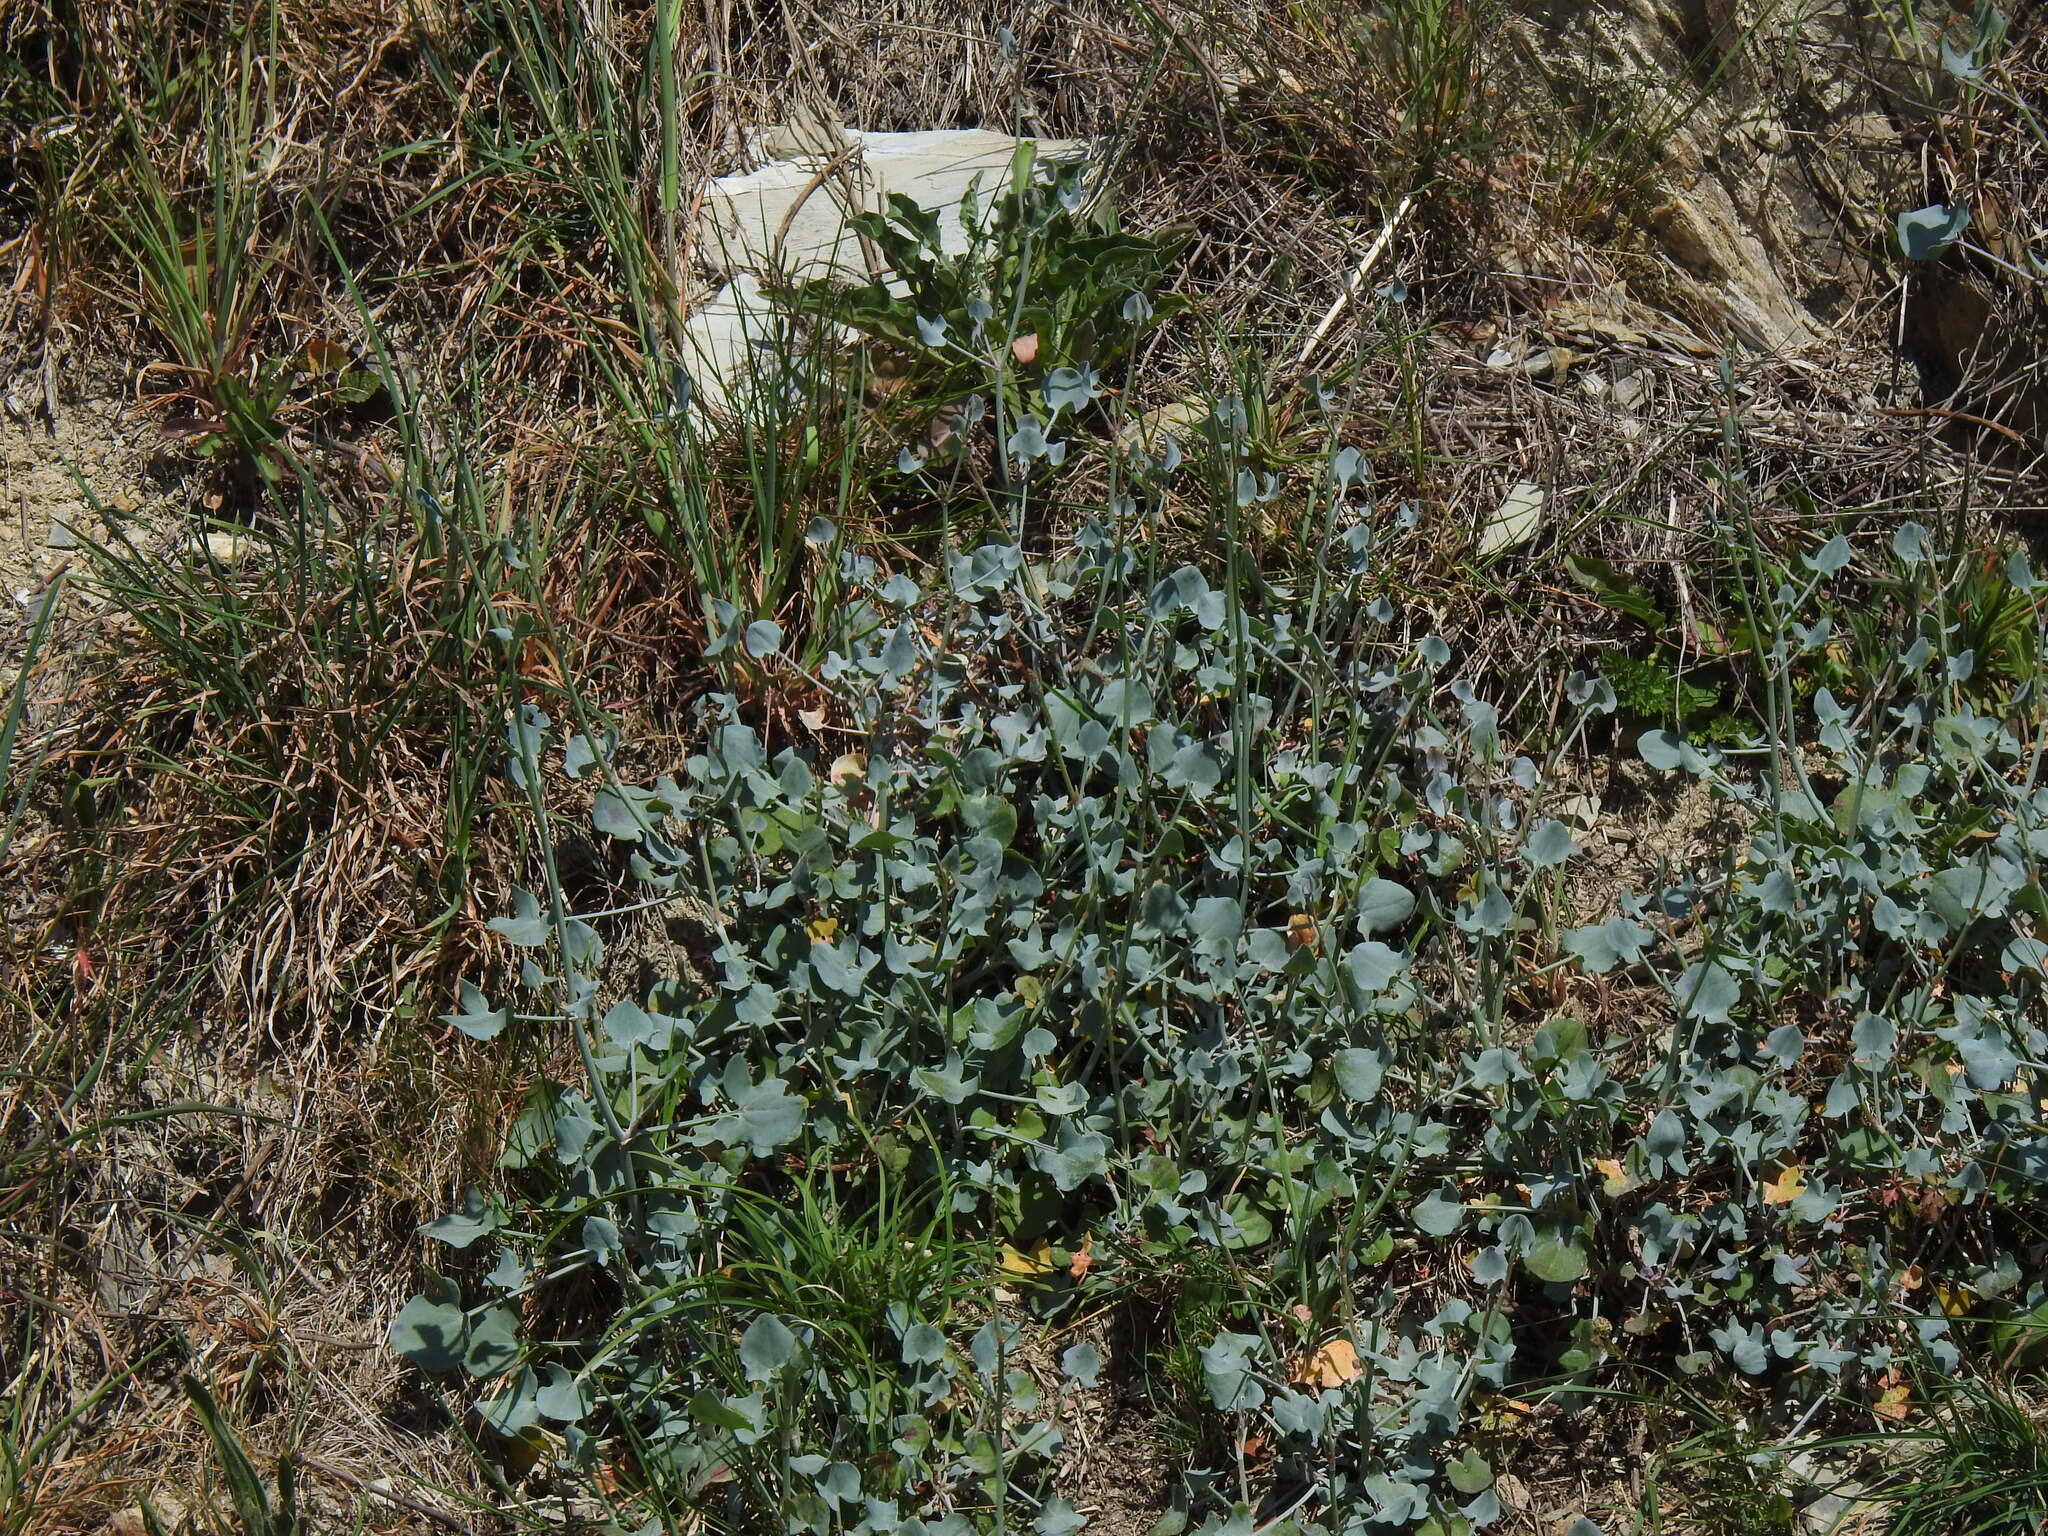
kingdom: Plantae
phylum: Tracheophyta
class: Magnoliopsida
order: Caryophyllales
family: Polygonaceae
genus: Rumex
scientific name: Rumex induratus
